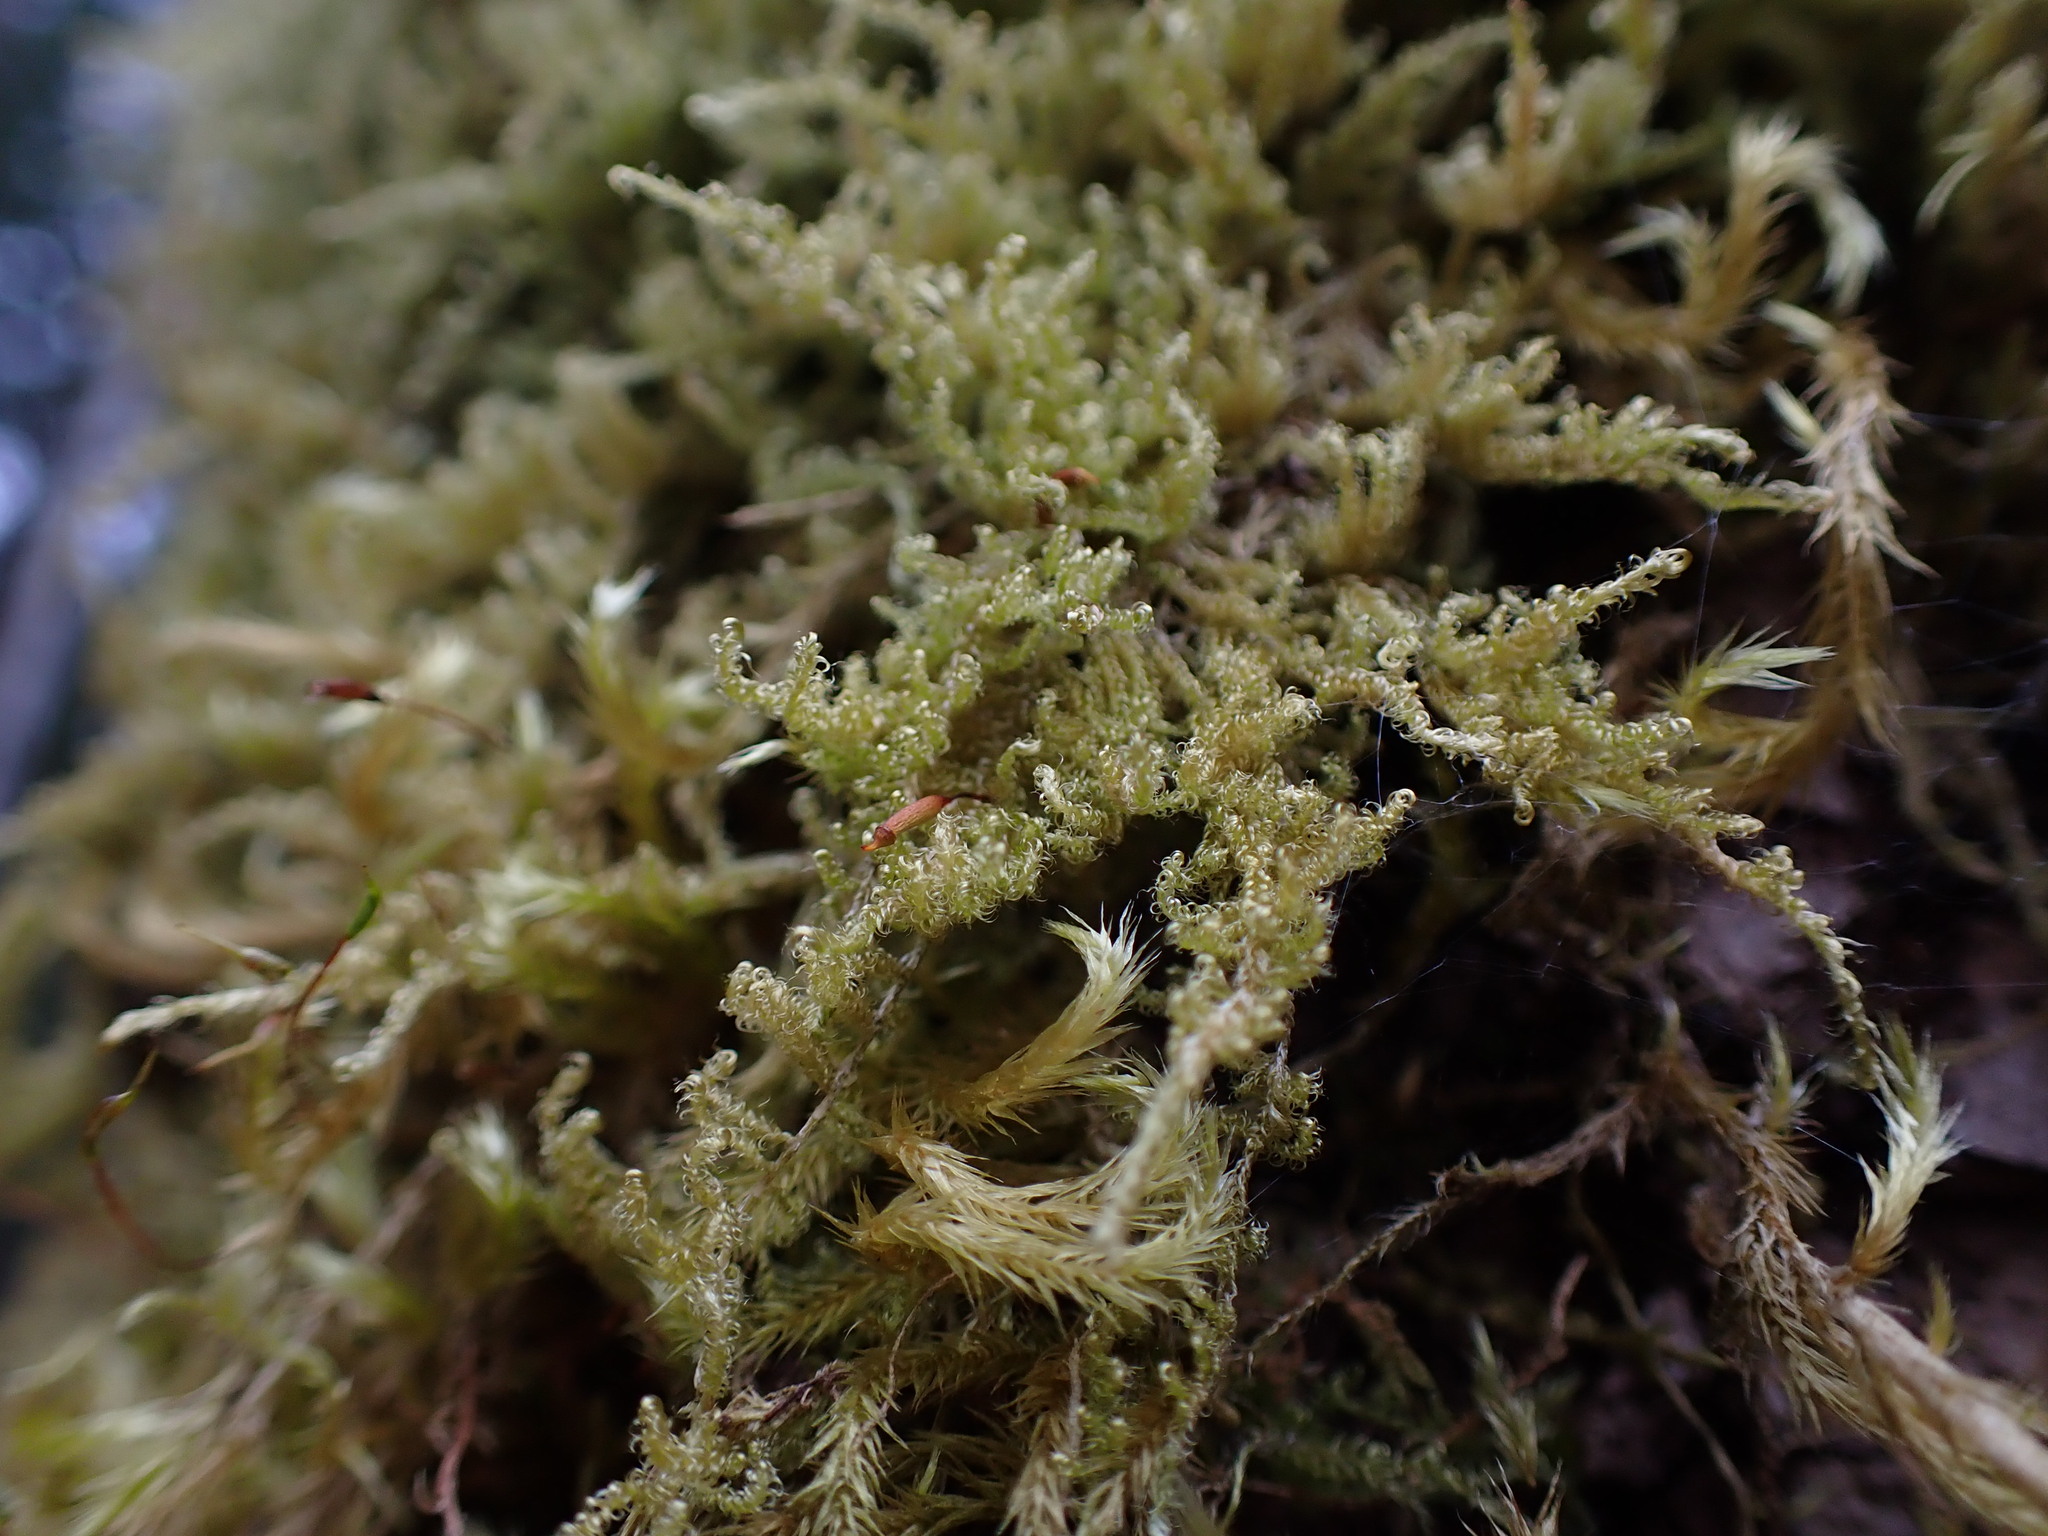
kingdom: Plantae
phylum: Bryophyta
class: Bryopsida
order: Hypnales
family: Stereodontaceae
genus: Stereodon
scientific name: Stereodon subimponens
